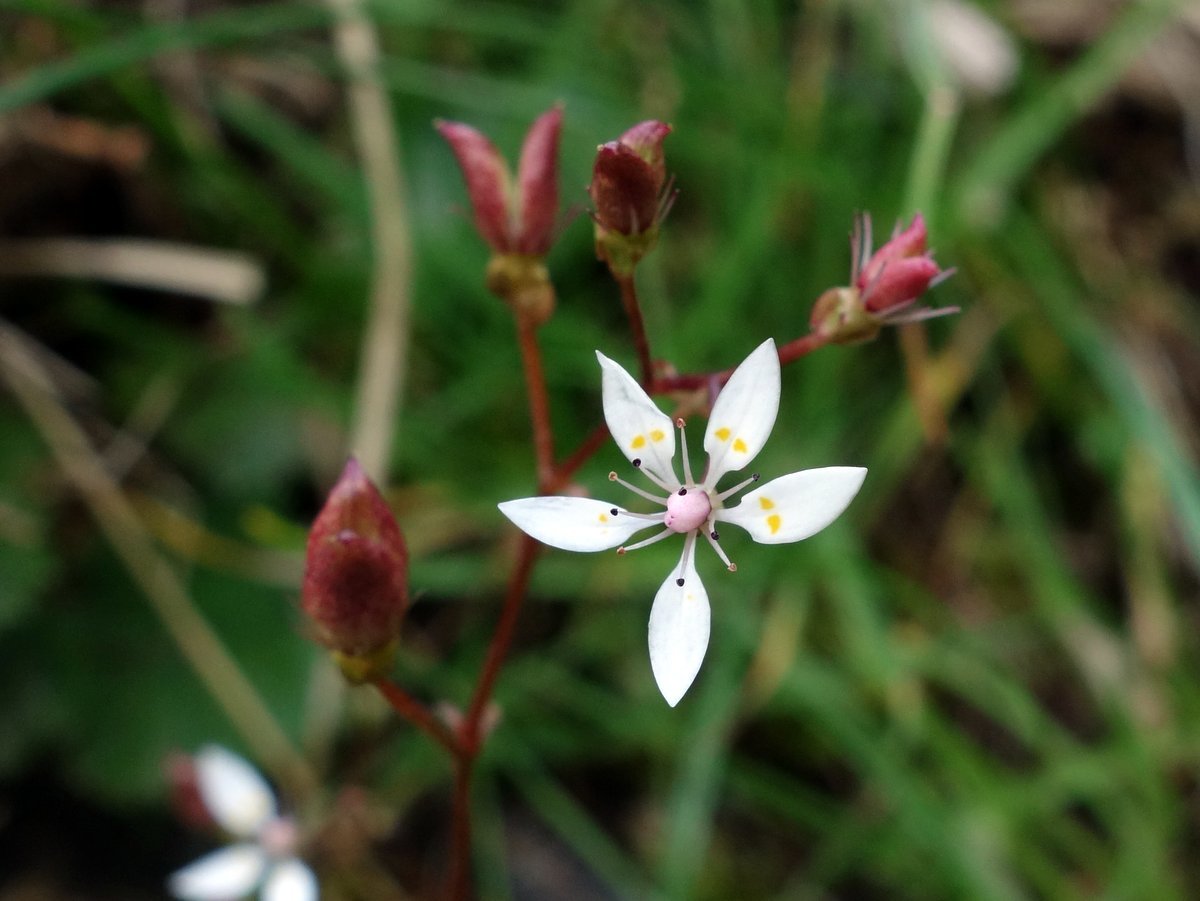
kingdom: Plantae
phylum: Tracheophyta
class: Magnoliopsida
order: Saxifragales
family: Saxifragaceae
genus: Micranthes
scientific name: Micranthes stellaris
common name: Starry saxifrage
